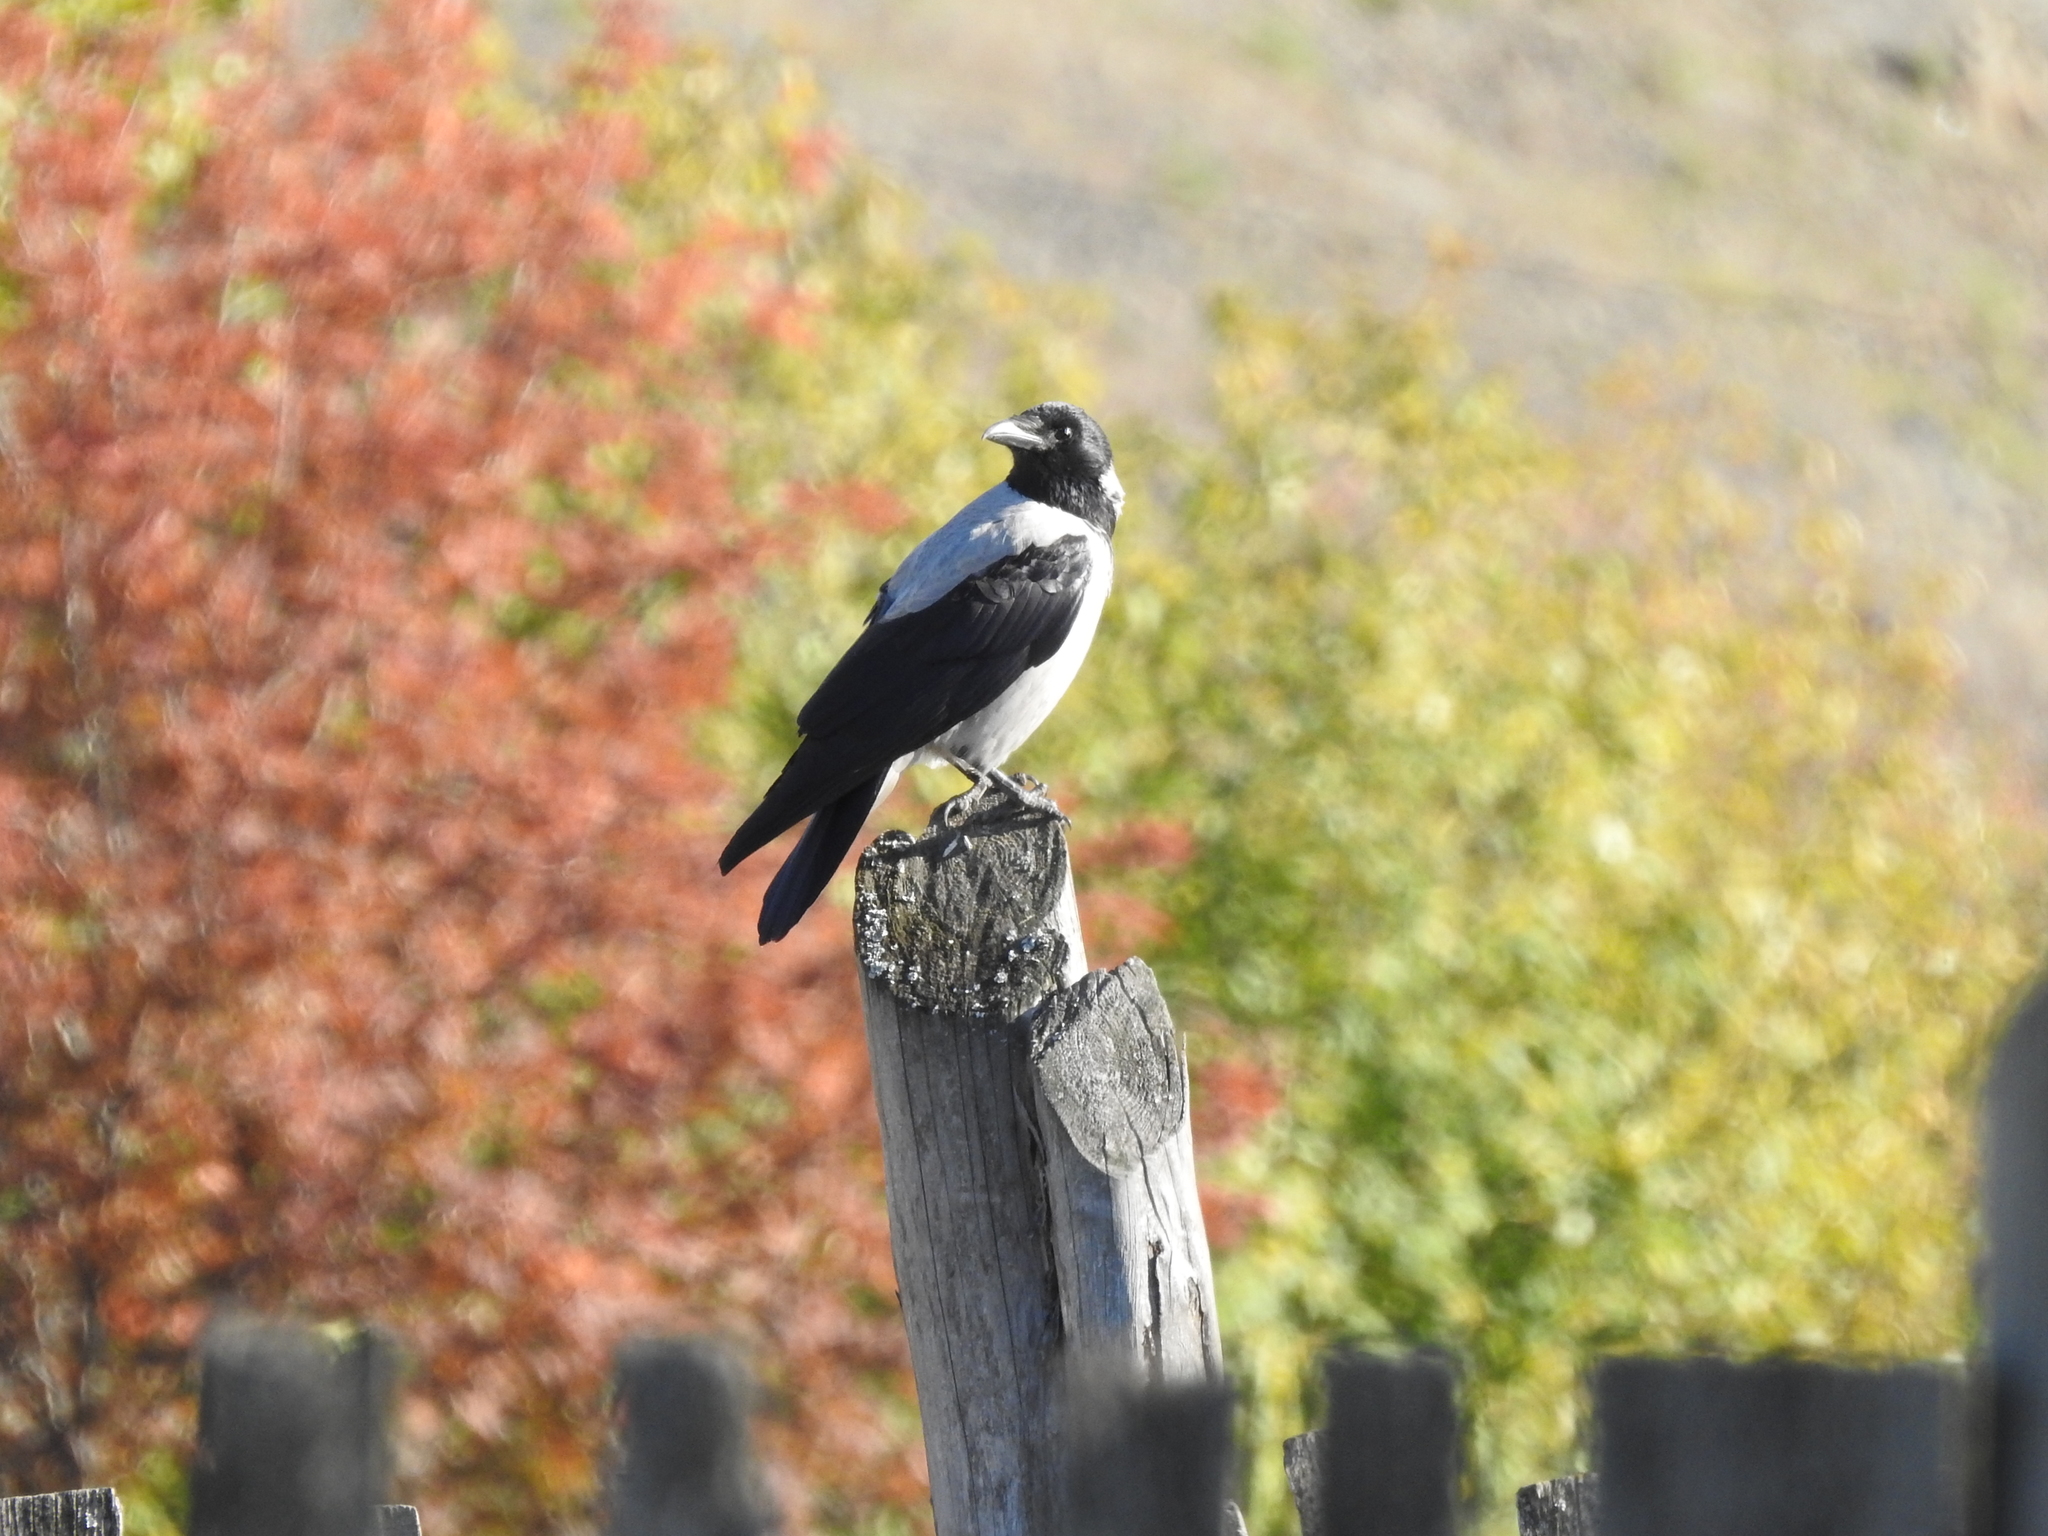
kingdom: Animalia
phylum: Chordata
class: Aves
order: Passeriformes
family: Corvidae
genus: Corvus
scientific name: Corvus cornix
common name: Hooded crow
